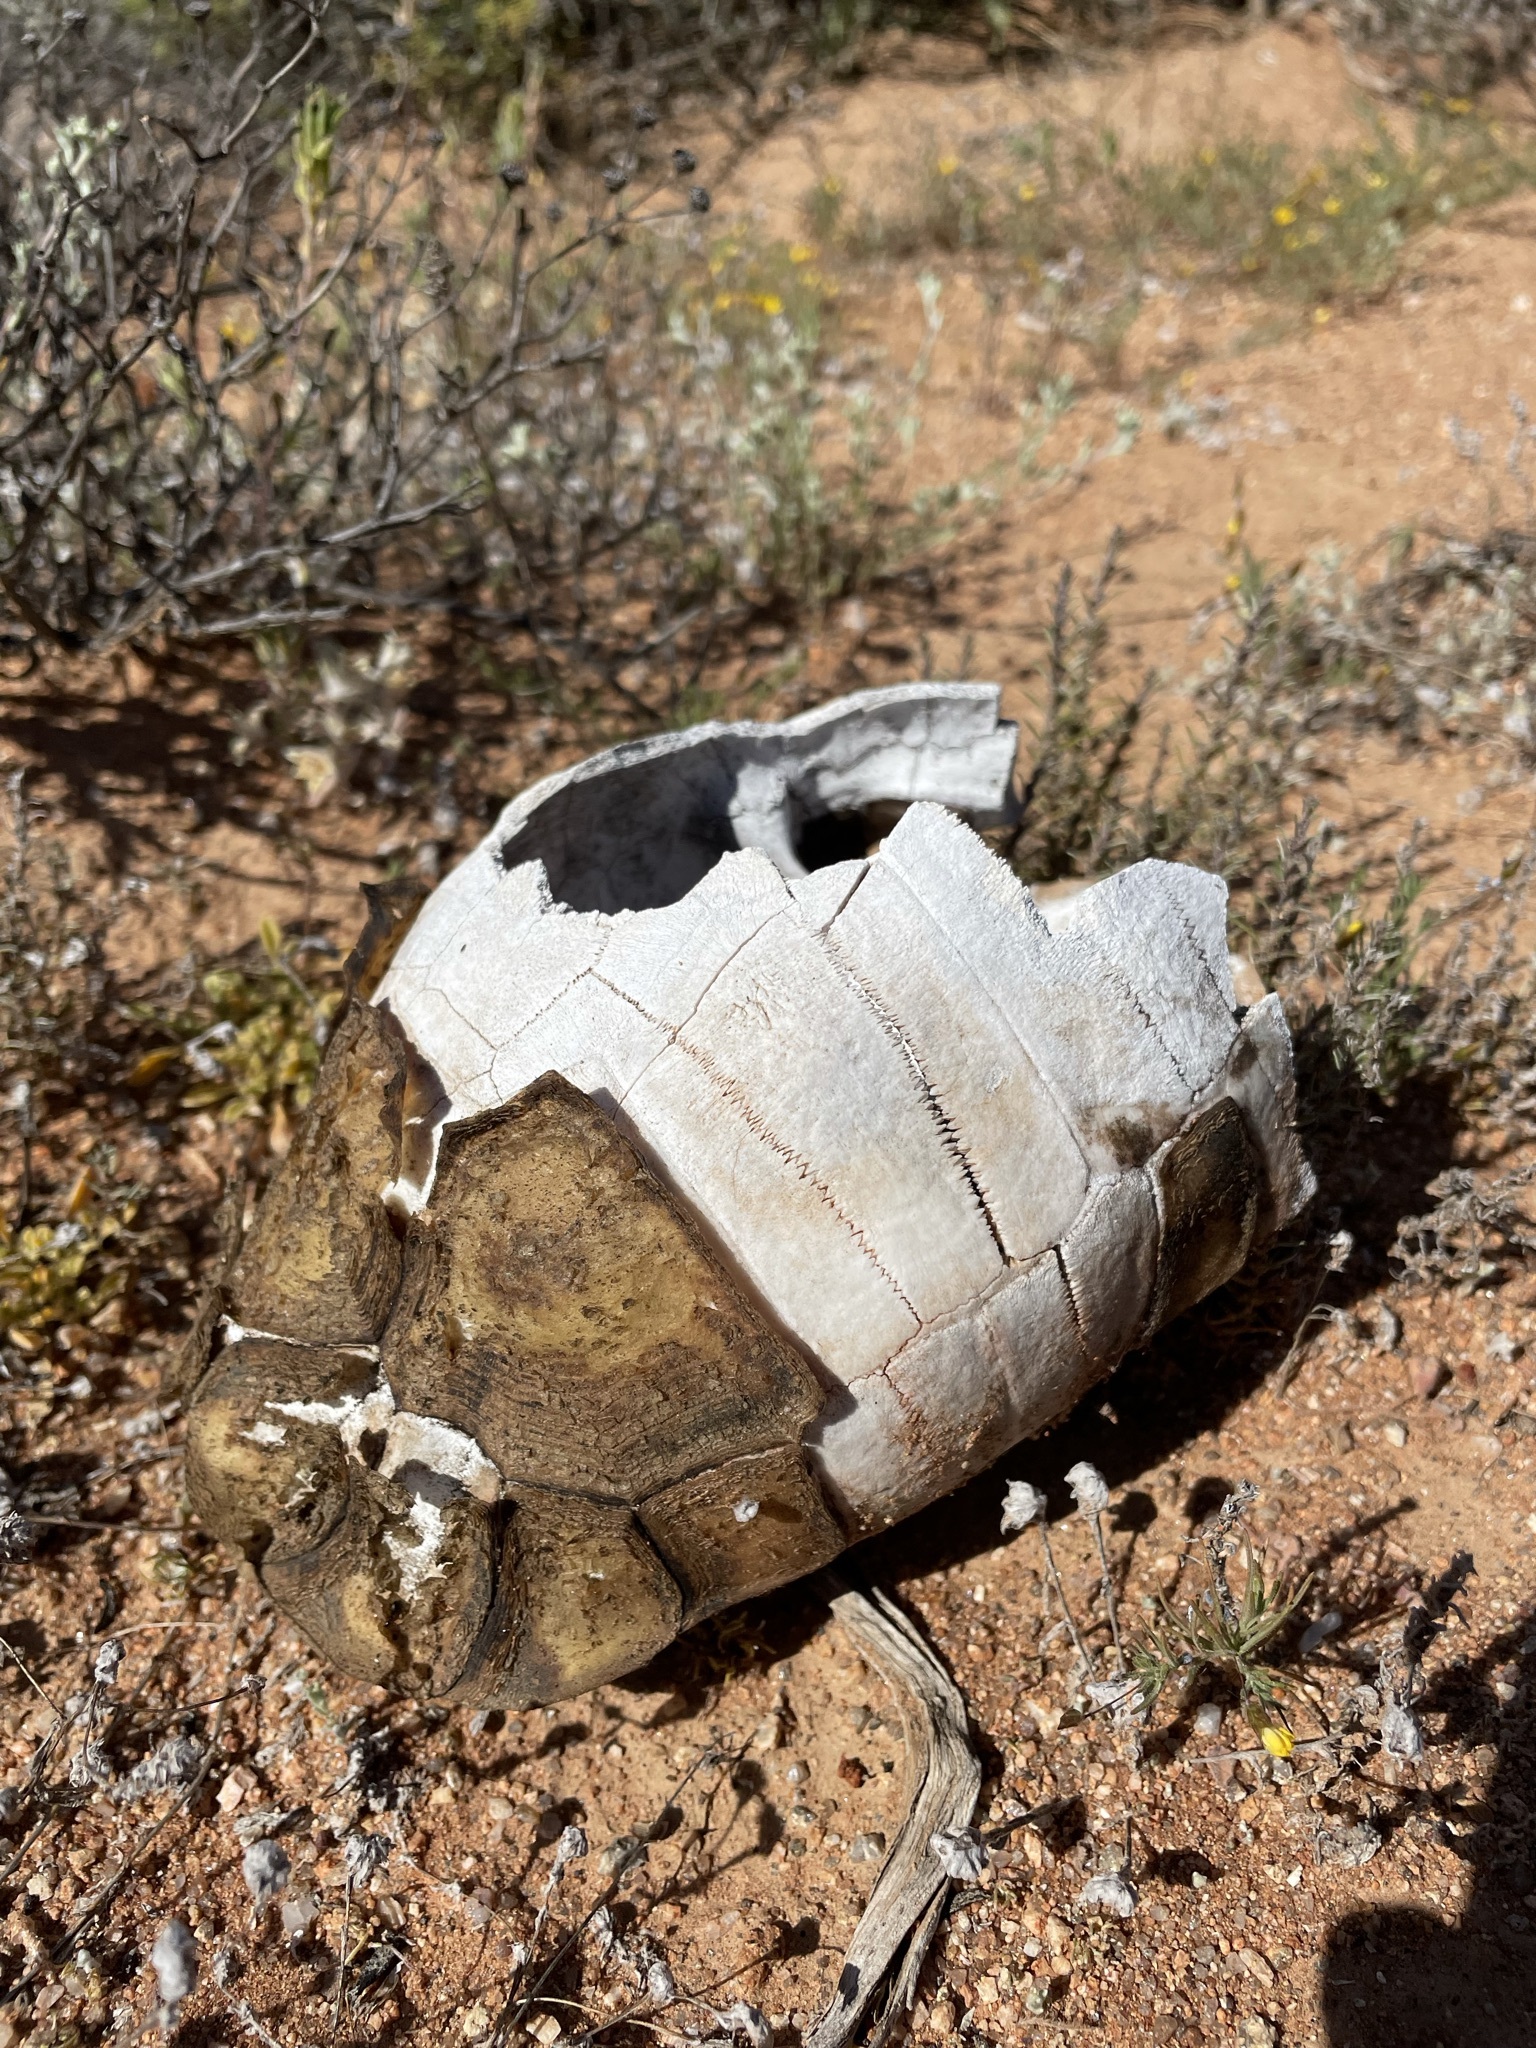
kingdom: Animalia
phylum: Chordata
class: Testudines
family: Testudinidae
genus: Chersina
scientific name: Chersina angulata
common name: South african bowsprit tortoise
